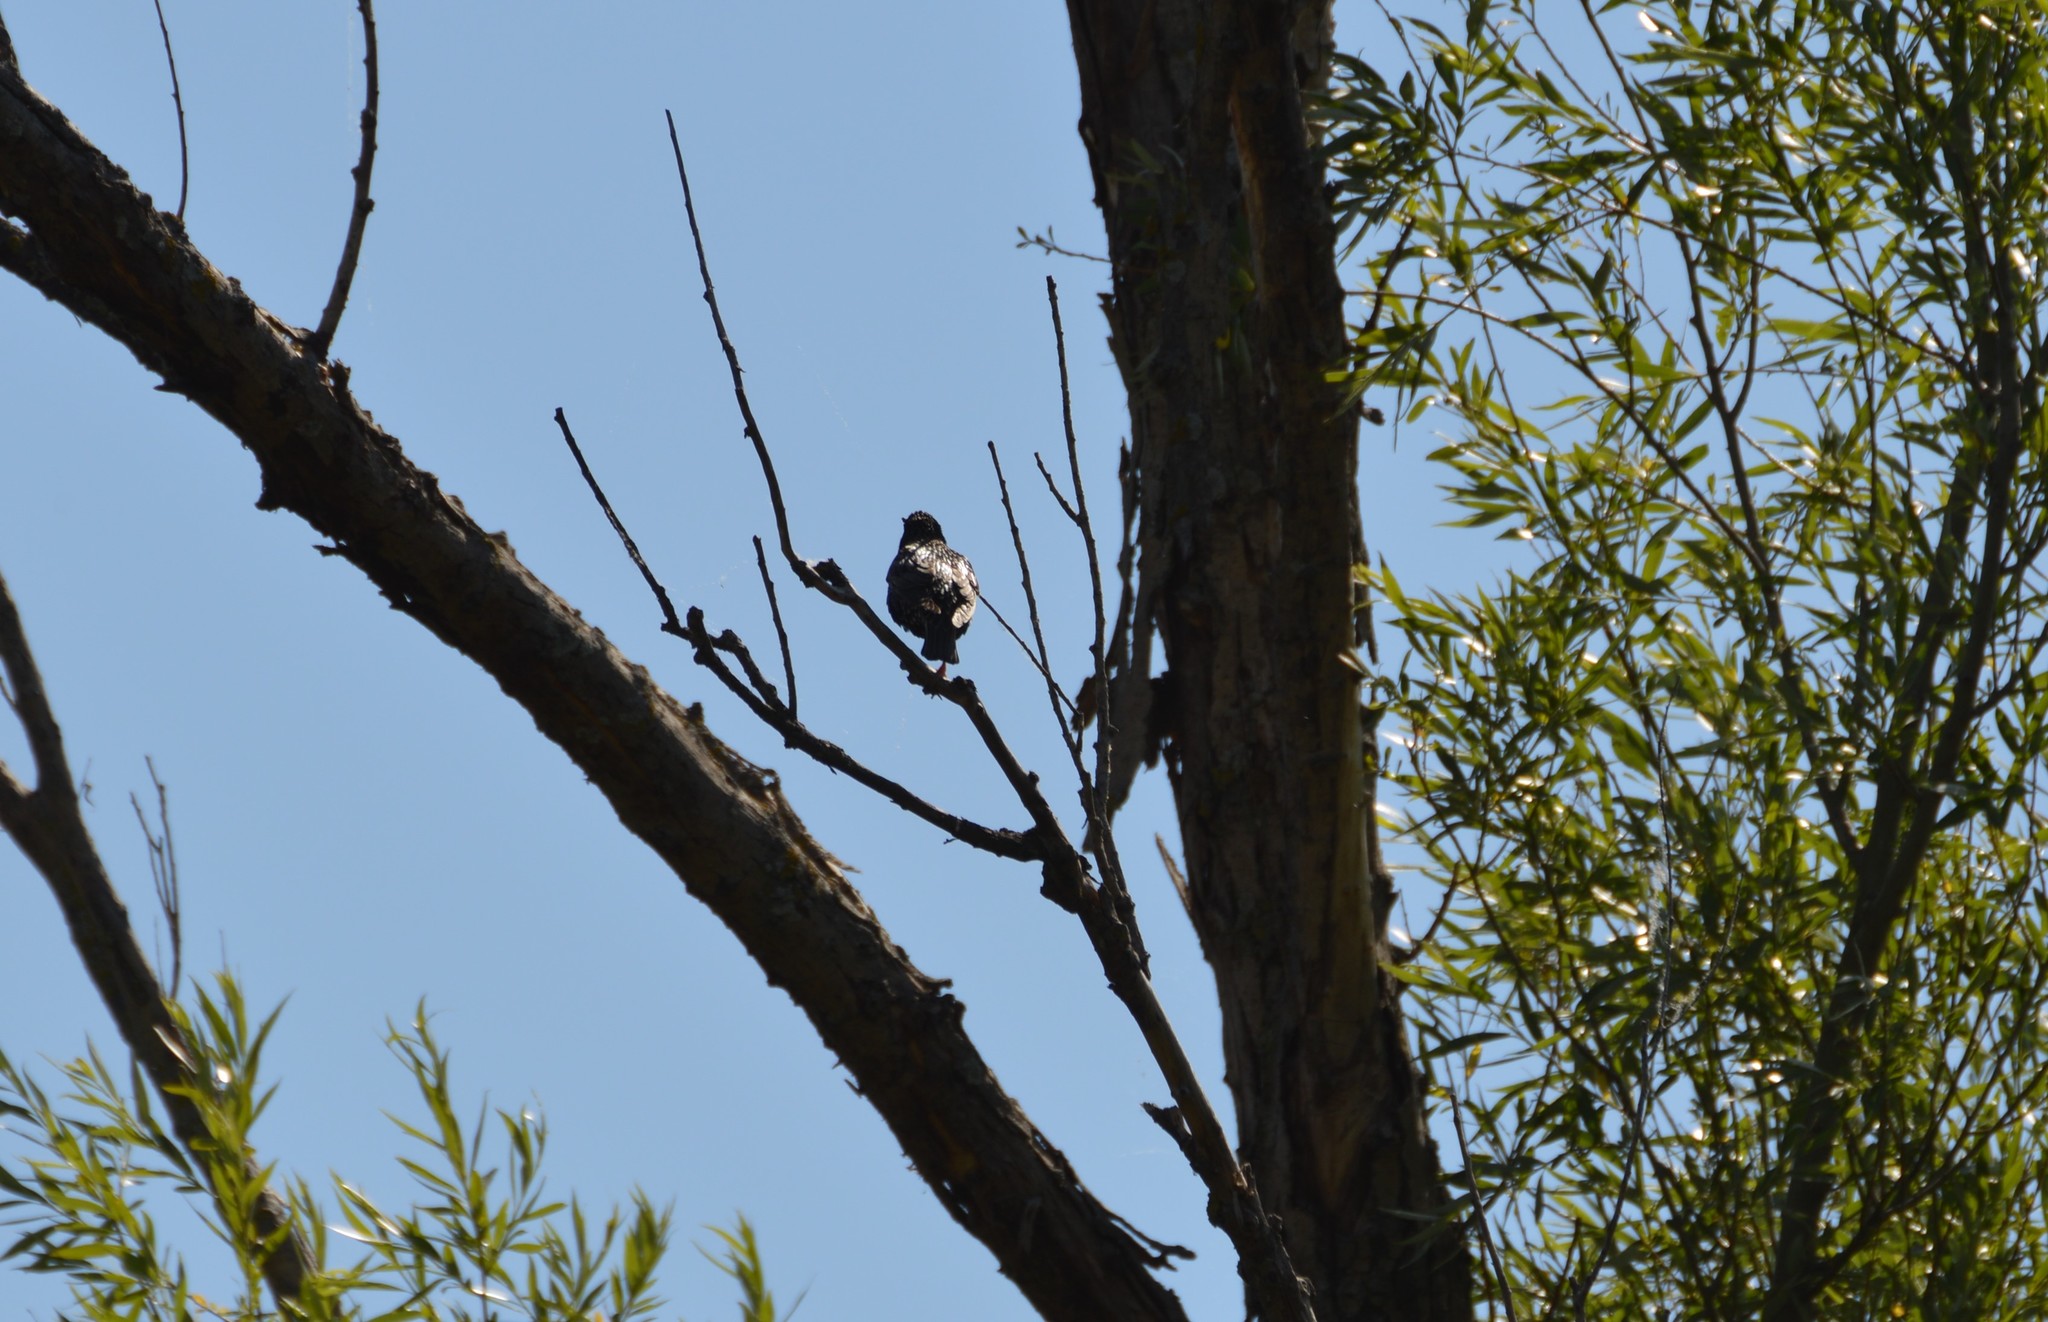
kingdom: Animalia
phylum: Chordata
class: Aves
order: Passeriformes
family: Fringillidae
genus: Carduelis
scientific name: Carduelis carduelis
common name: European goldfinch
